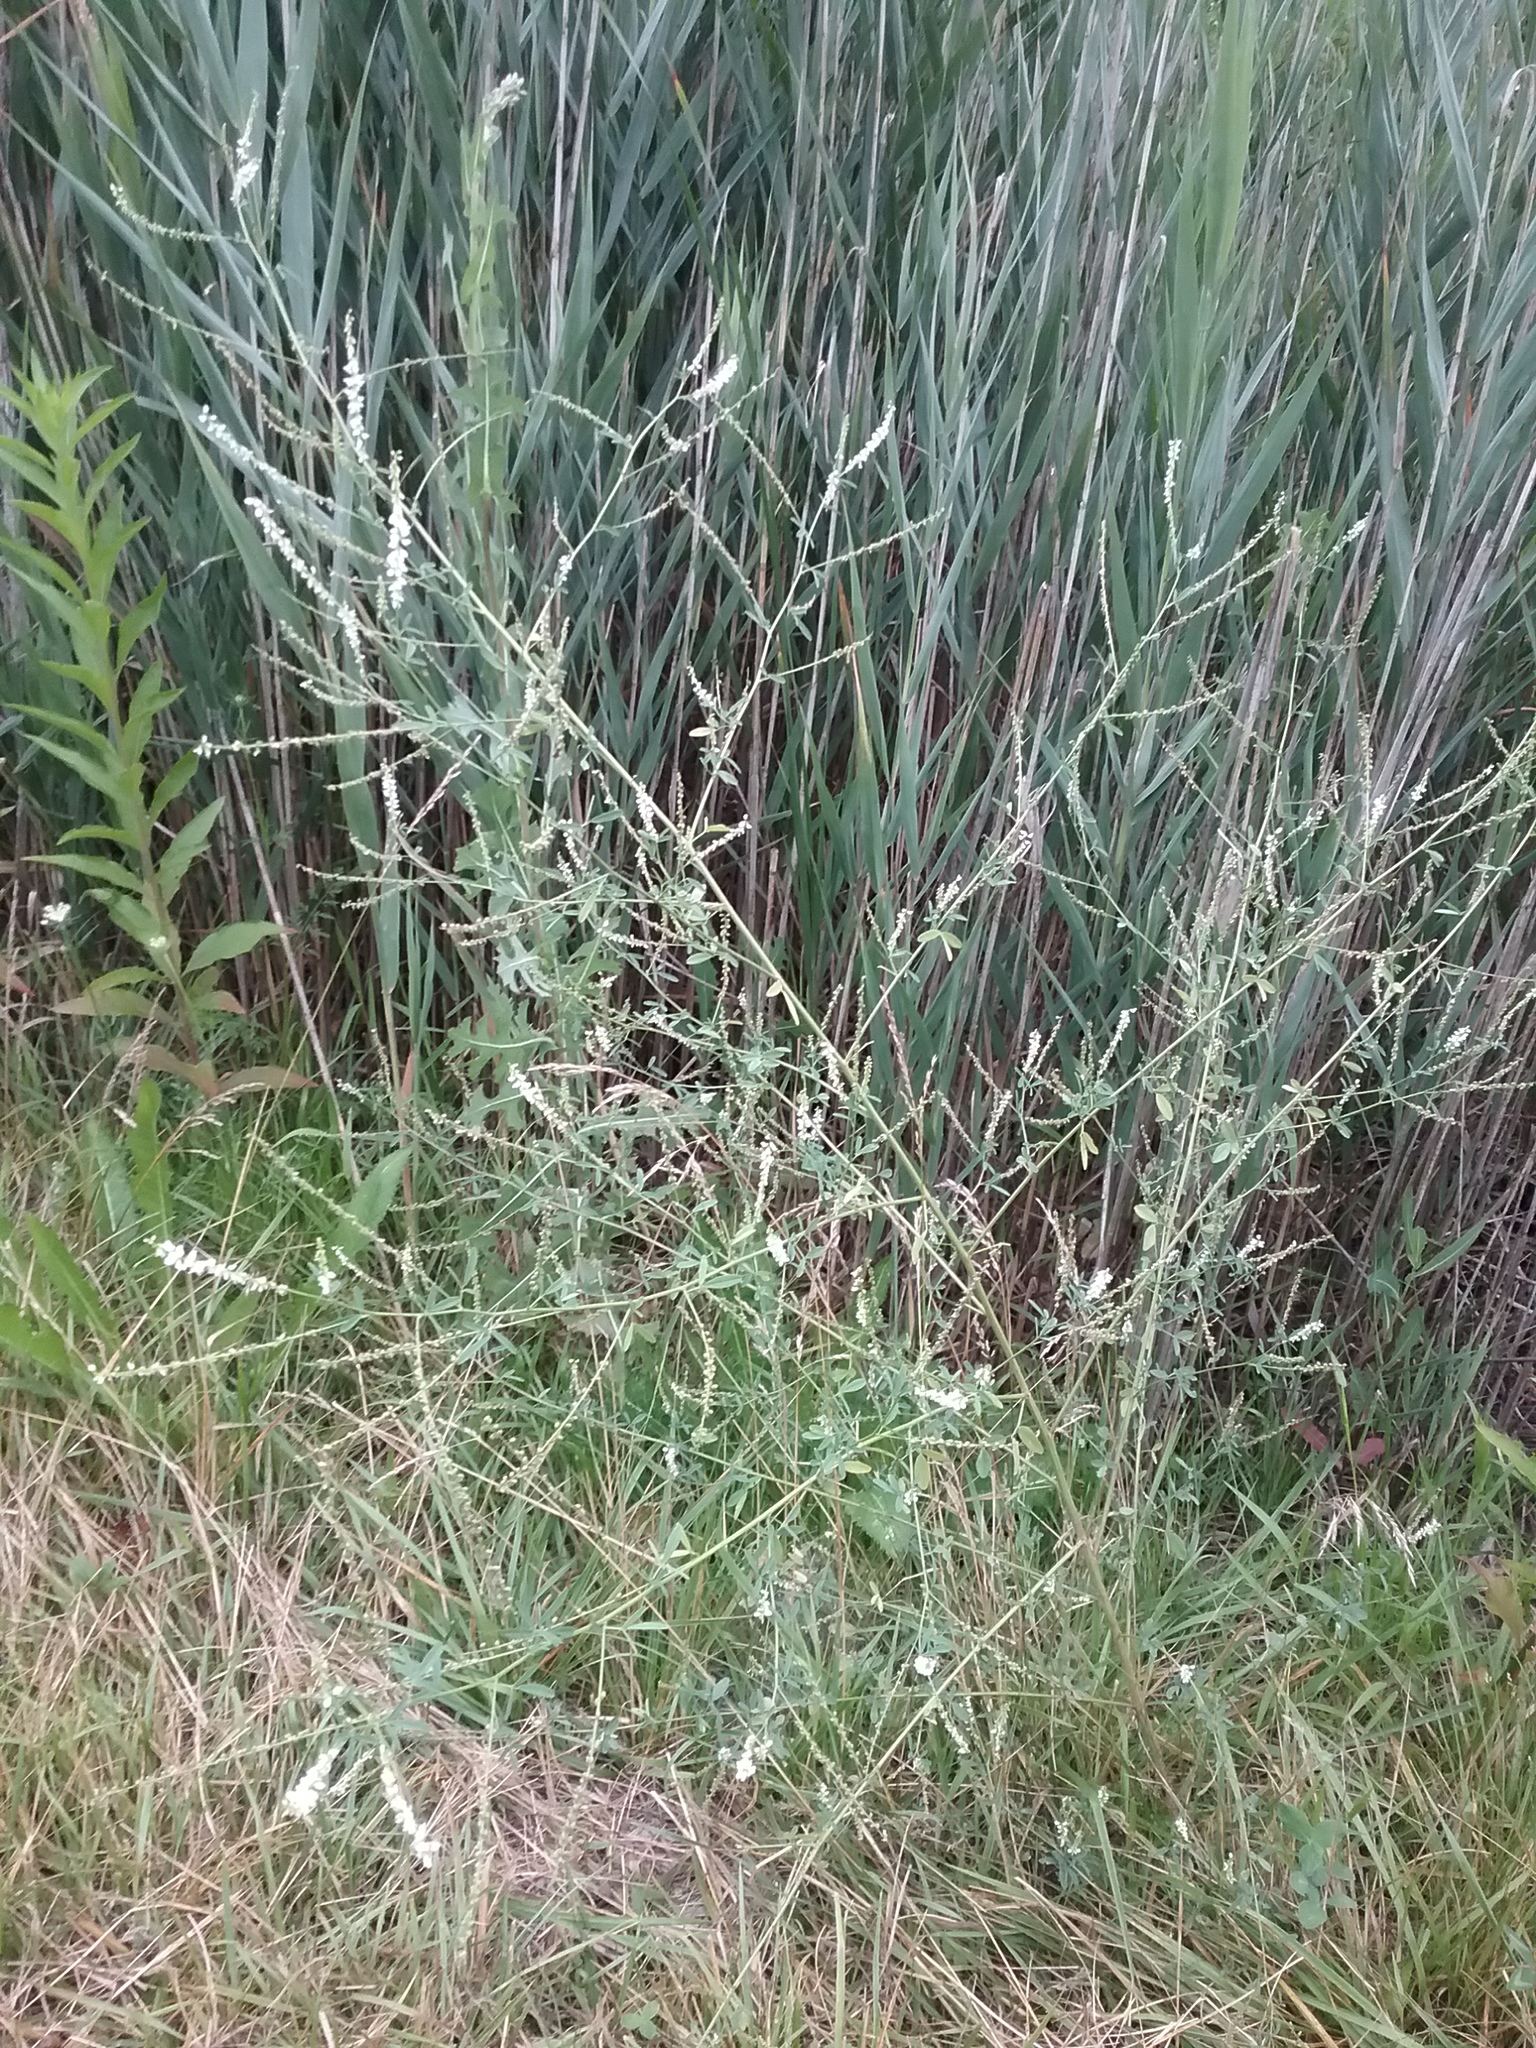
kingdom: Plantae
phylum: Tracheophyta
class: Magnoliopsida
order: Fabales
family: Fabaceae
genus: Melilotus
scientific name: Melilotus albus
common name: White melilot
